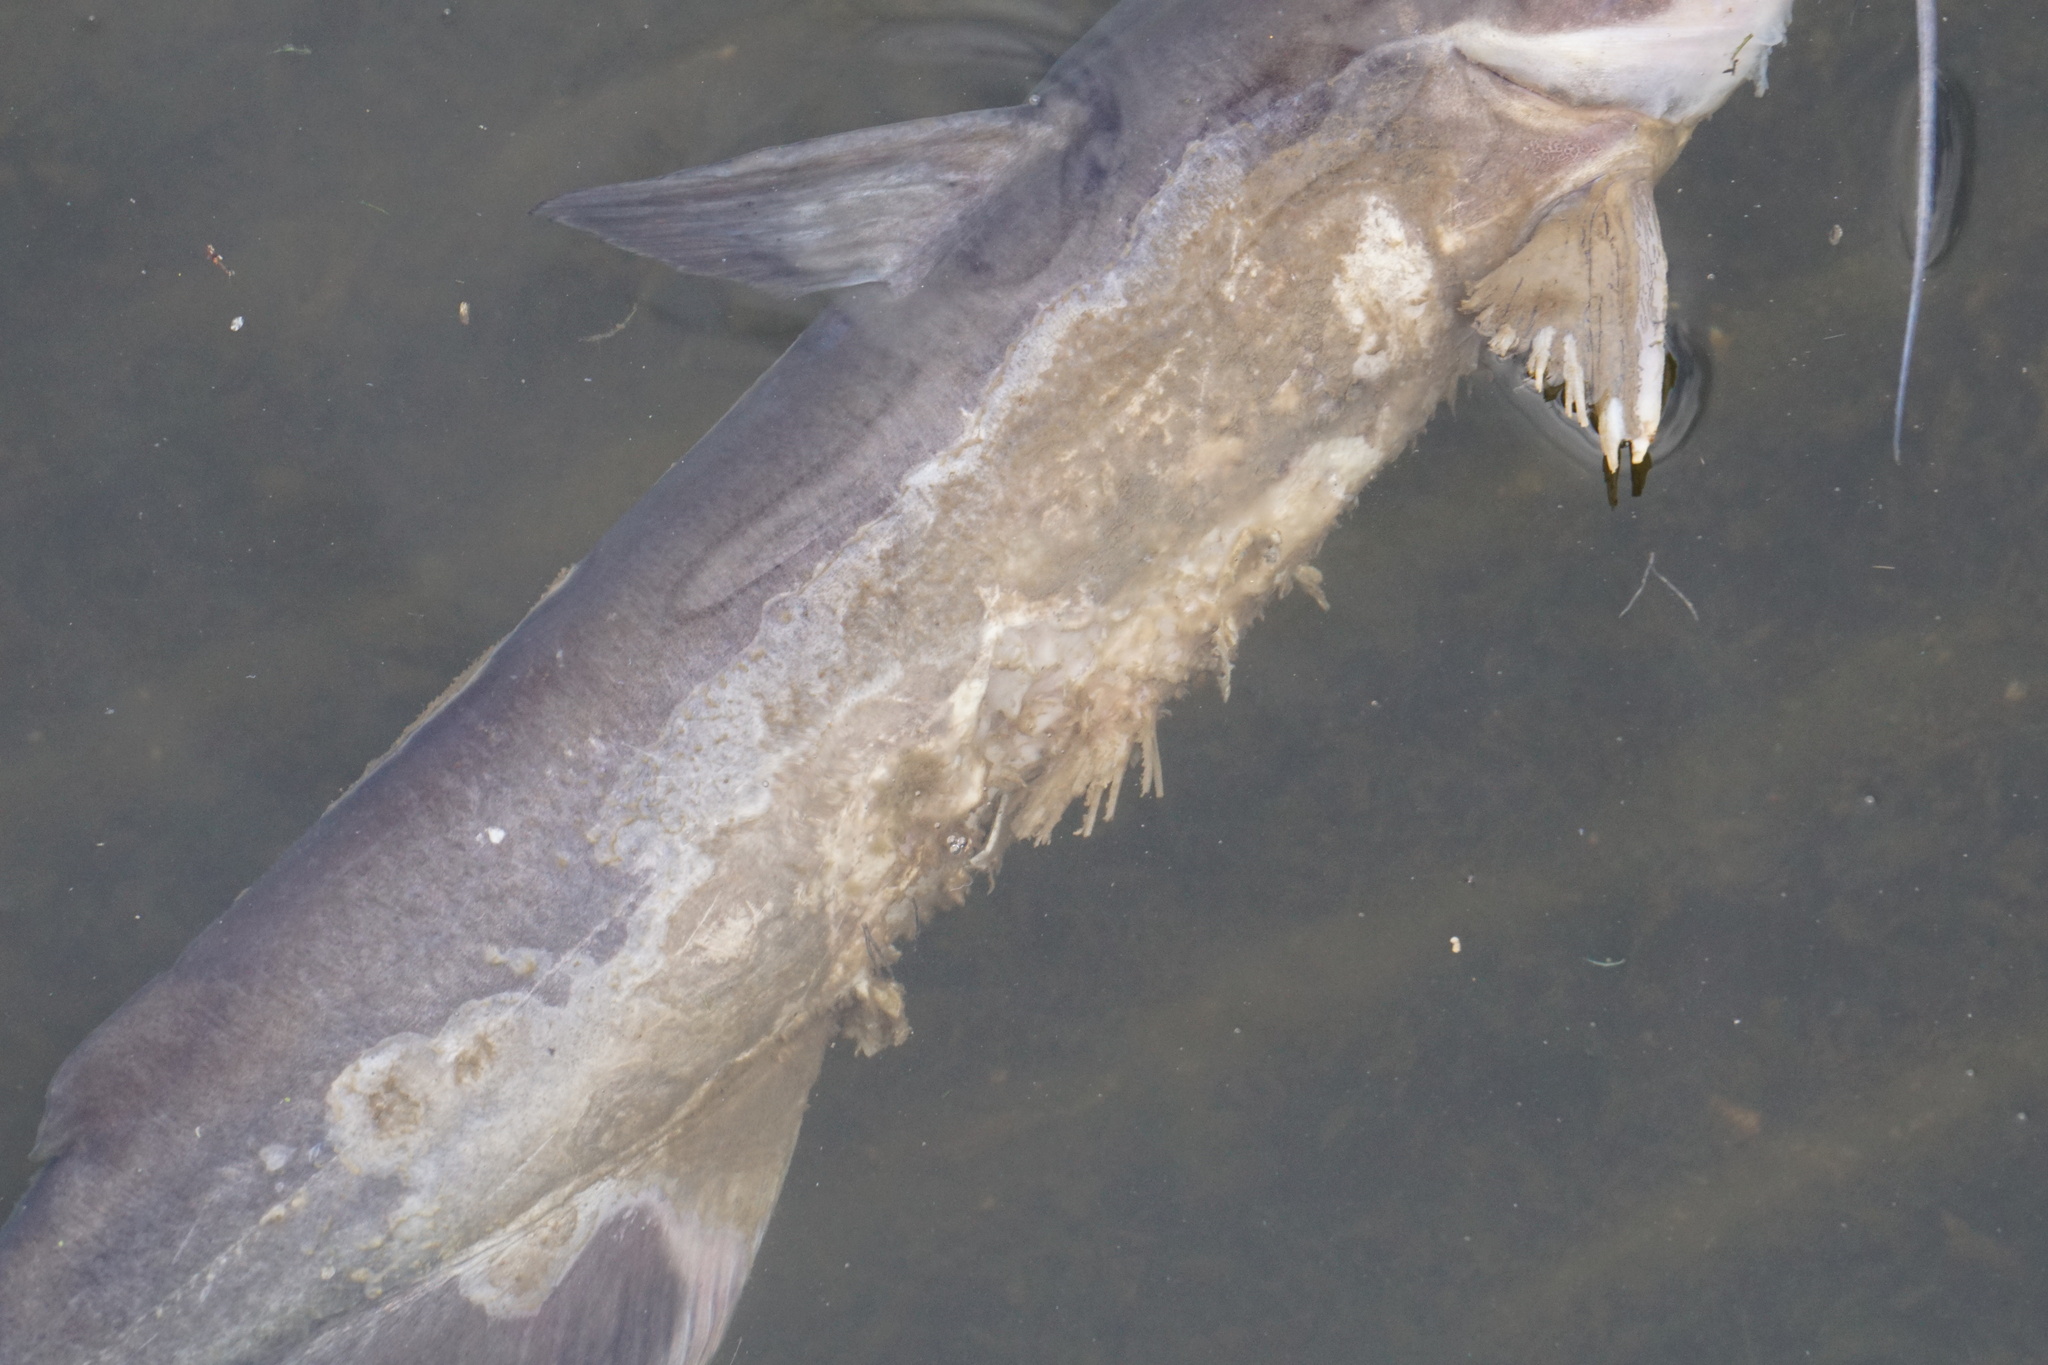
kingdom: Animalia
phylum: Chordata
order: Siluriformes
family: Ictaluridae
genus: Ictalurus
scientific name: Ictalurus punctatus
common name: Channel catfish
